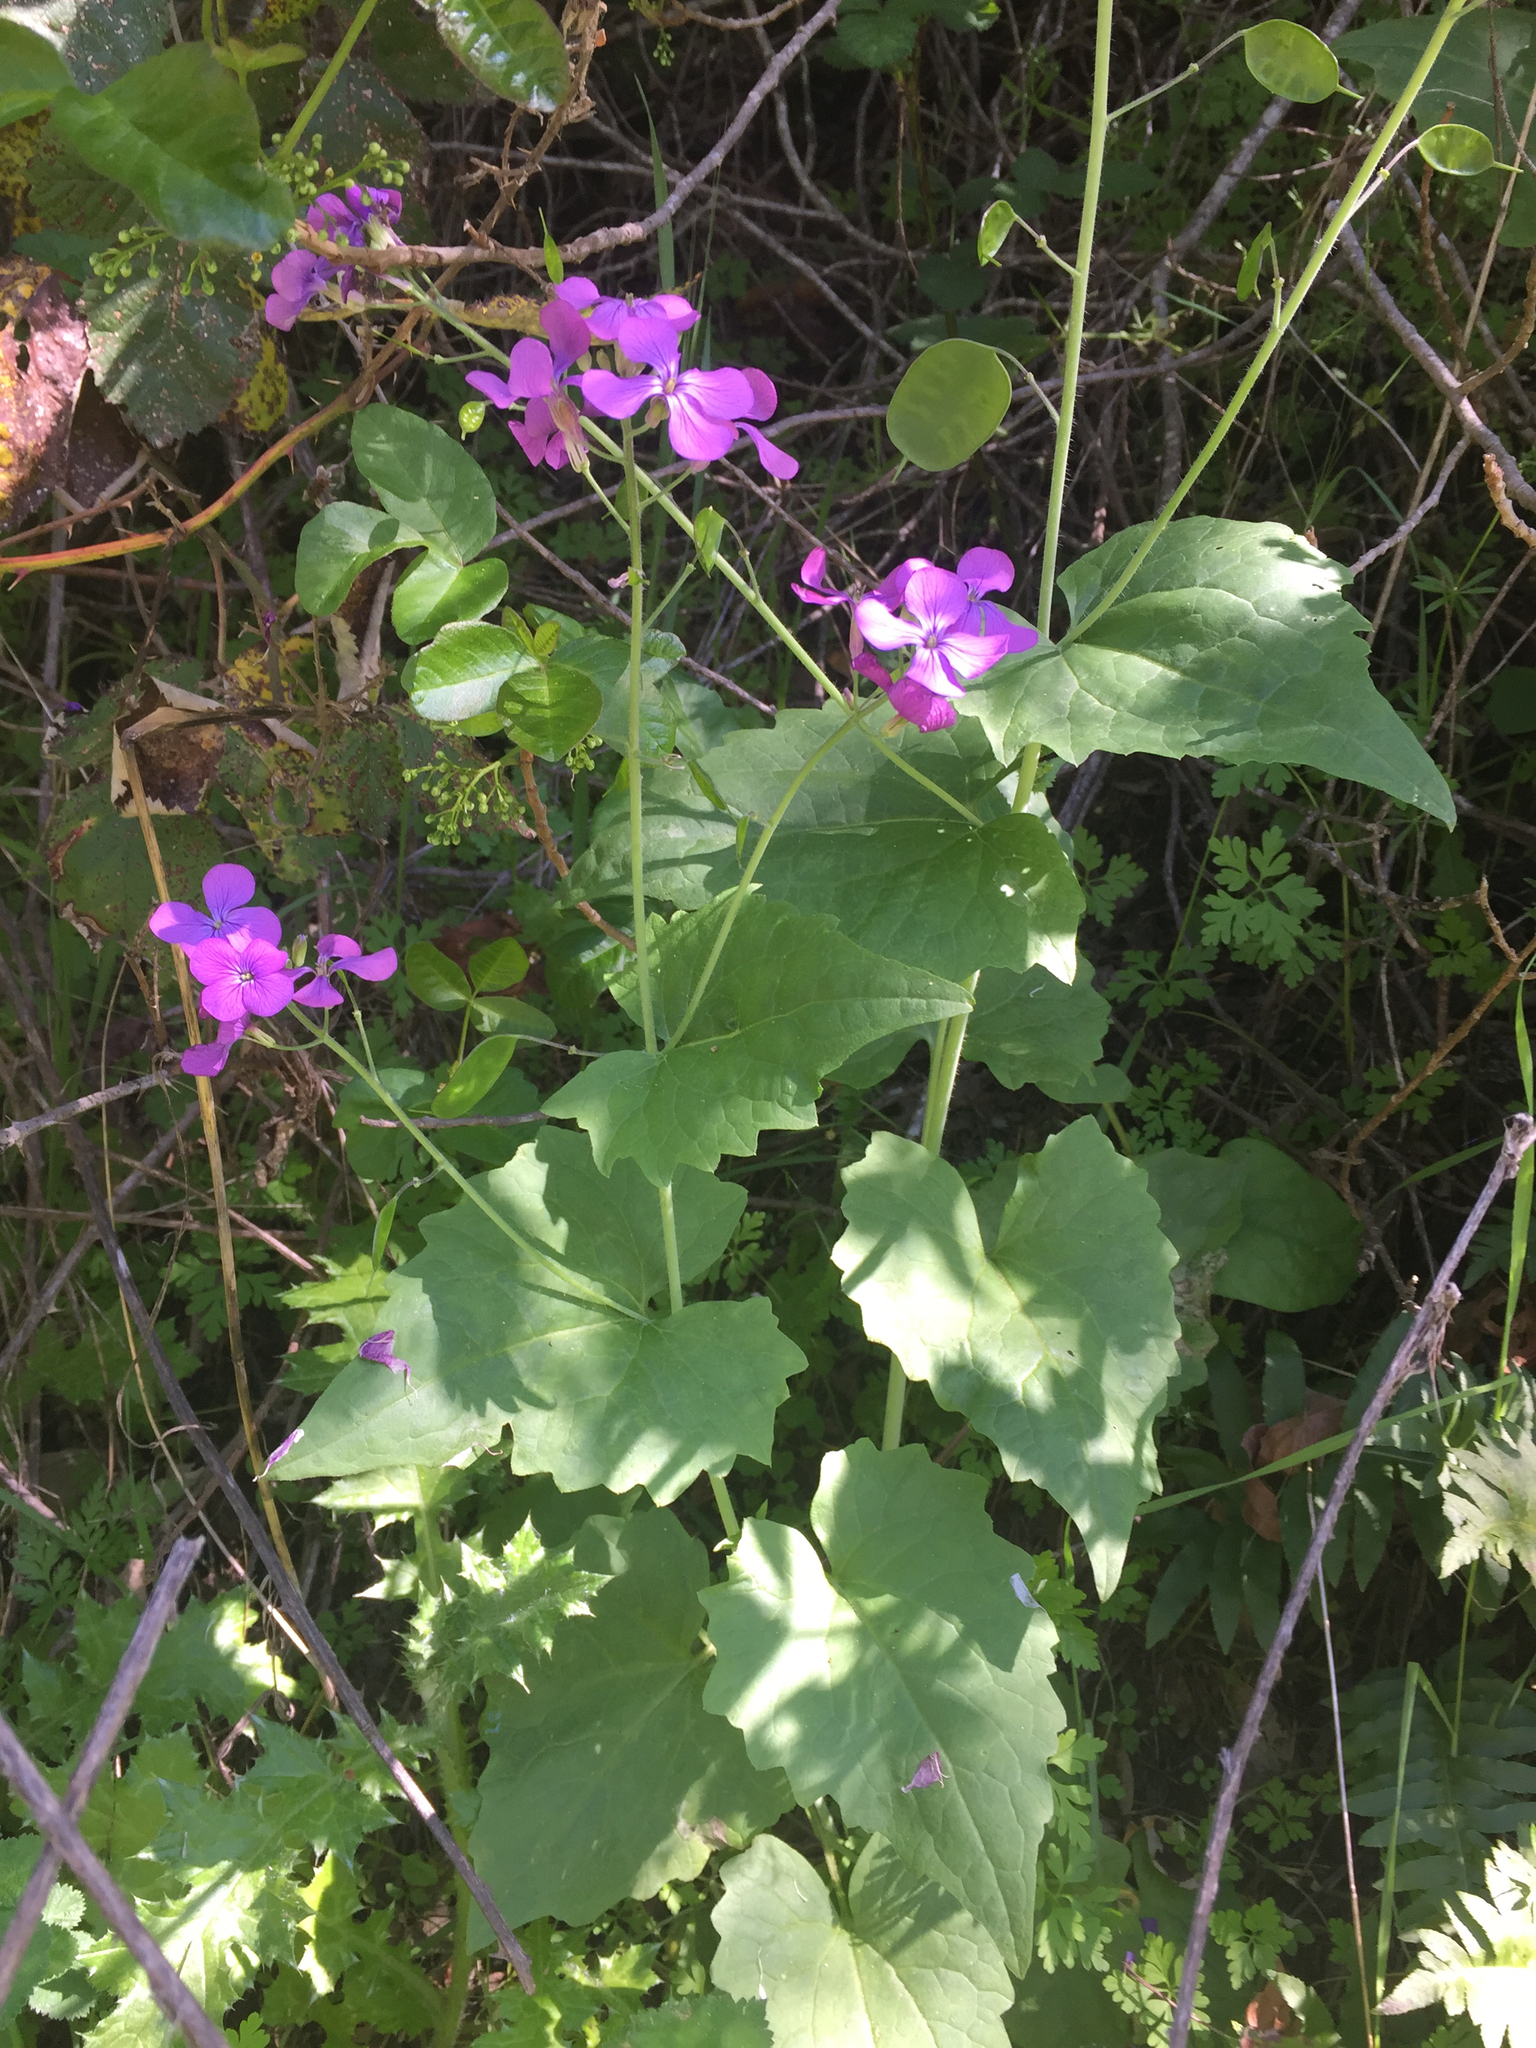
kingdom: Plantae
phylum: Tracheophyta
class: Magnoliopsida
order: Brassicales
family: Brassicaceae
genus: Lunaria
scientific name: Lunaria annua
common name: Honesty
